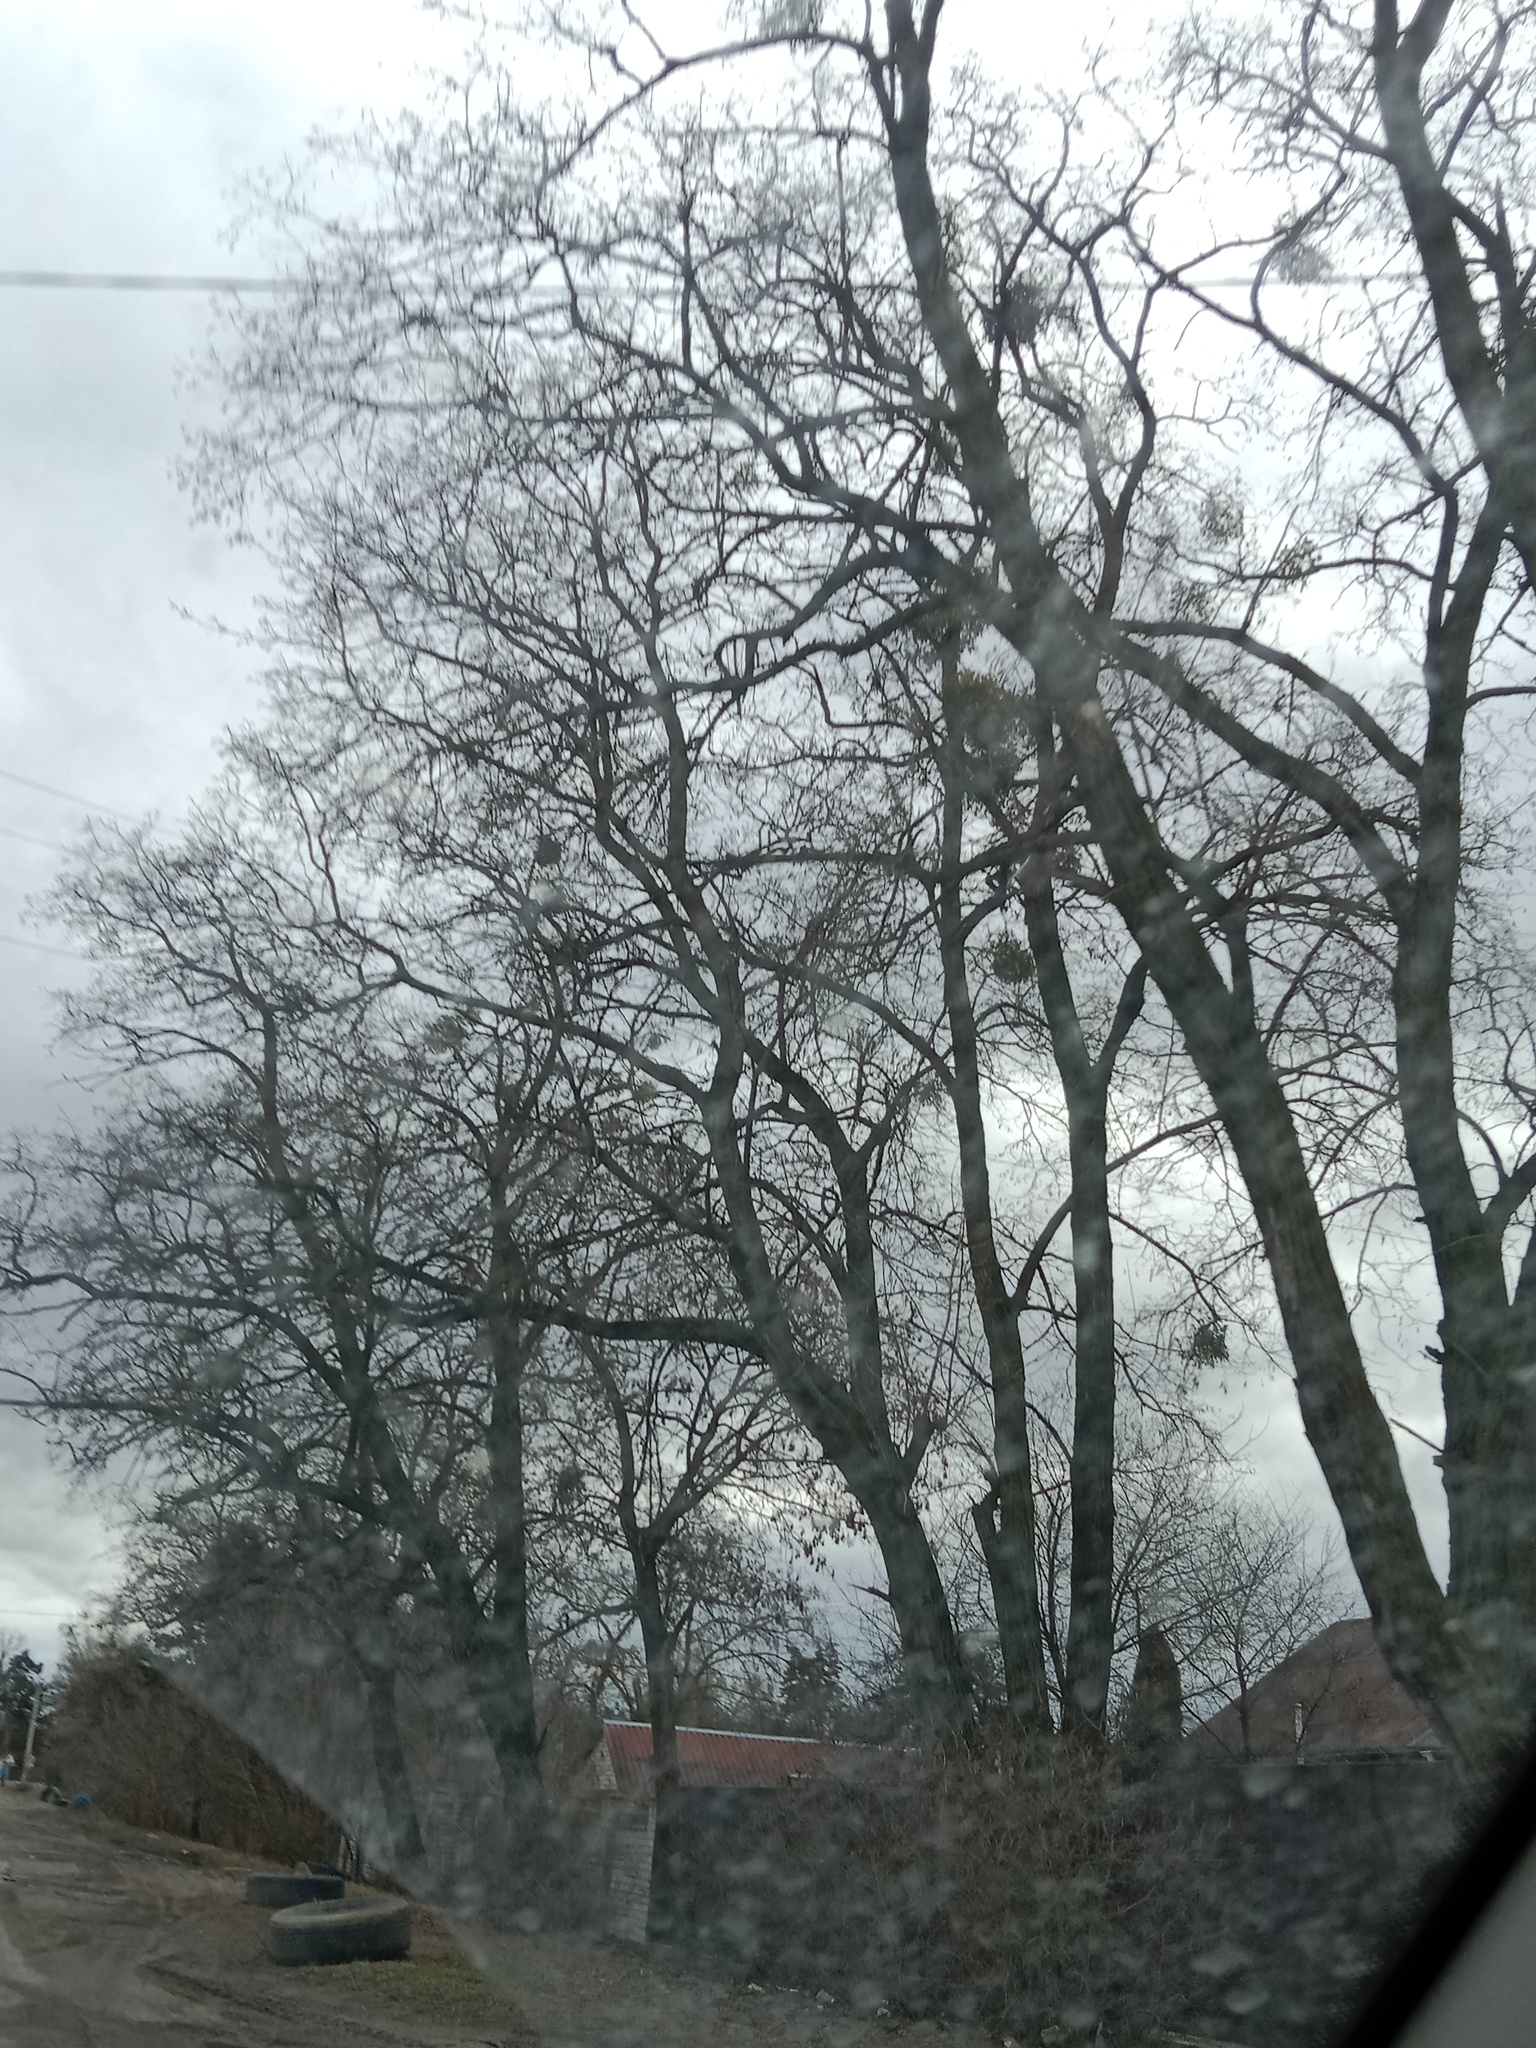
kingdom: Plantae
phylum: Tracheophyta
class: Magnoliopsida
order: Santalales
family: Viscaceae
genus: Viscum
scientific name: Viscum album
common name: Mistletoe
